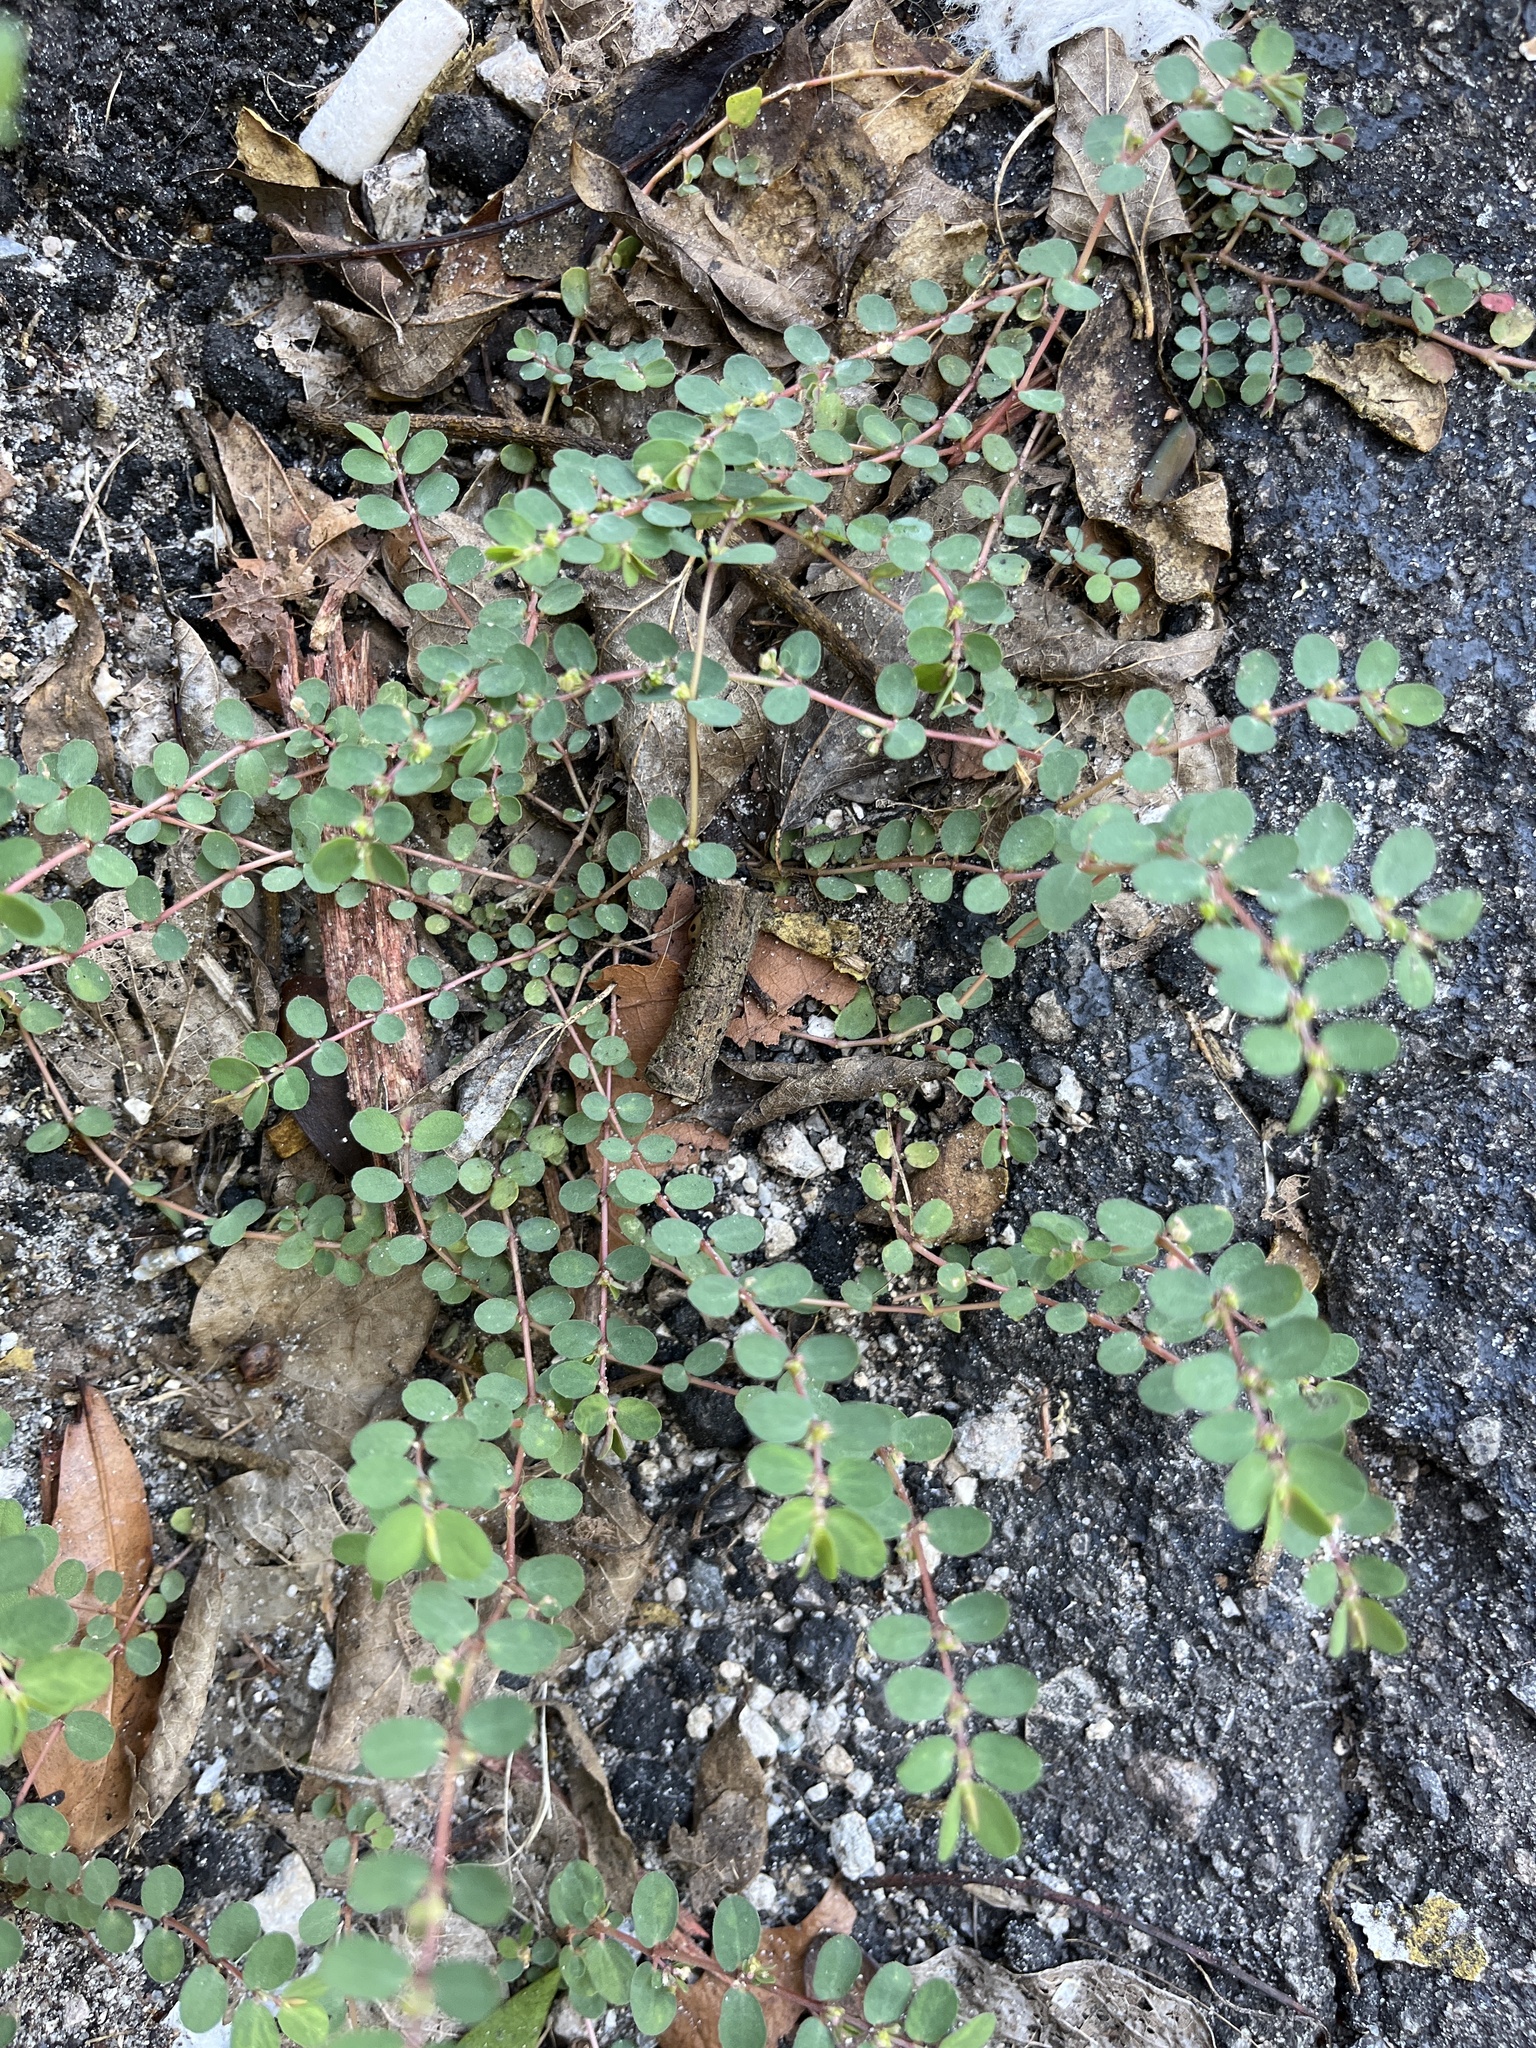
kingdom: Plantae
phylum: Tracheophyta
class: Magnoliopsida
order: Malpighiales
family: Euphorbiaceae
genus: Euphorbia
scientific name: Euphorbia prostrata
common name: Prostrate sandmat
